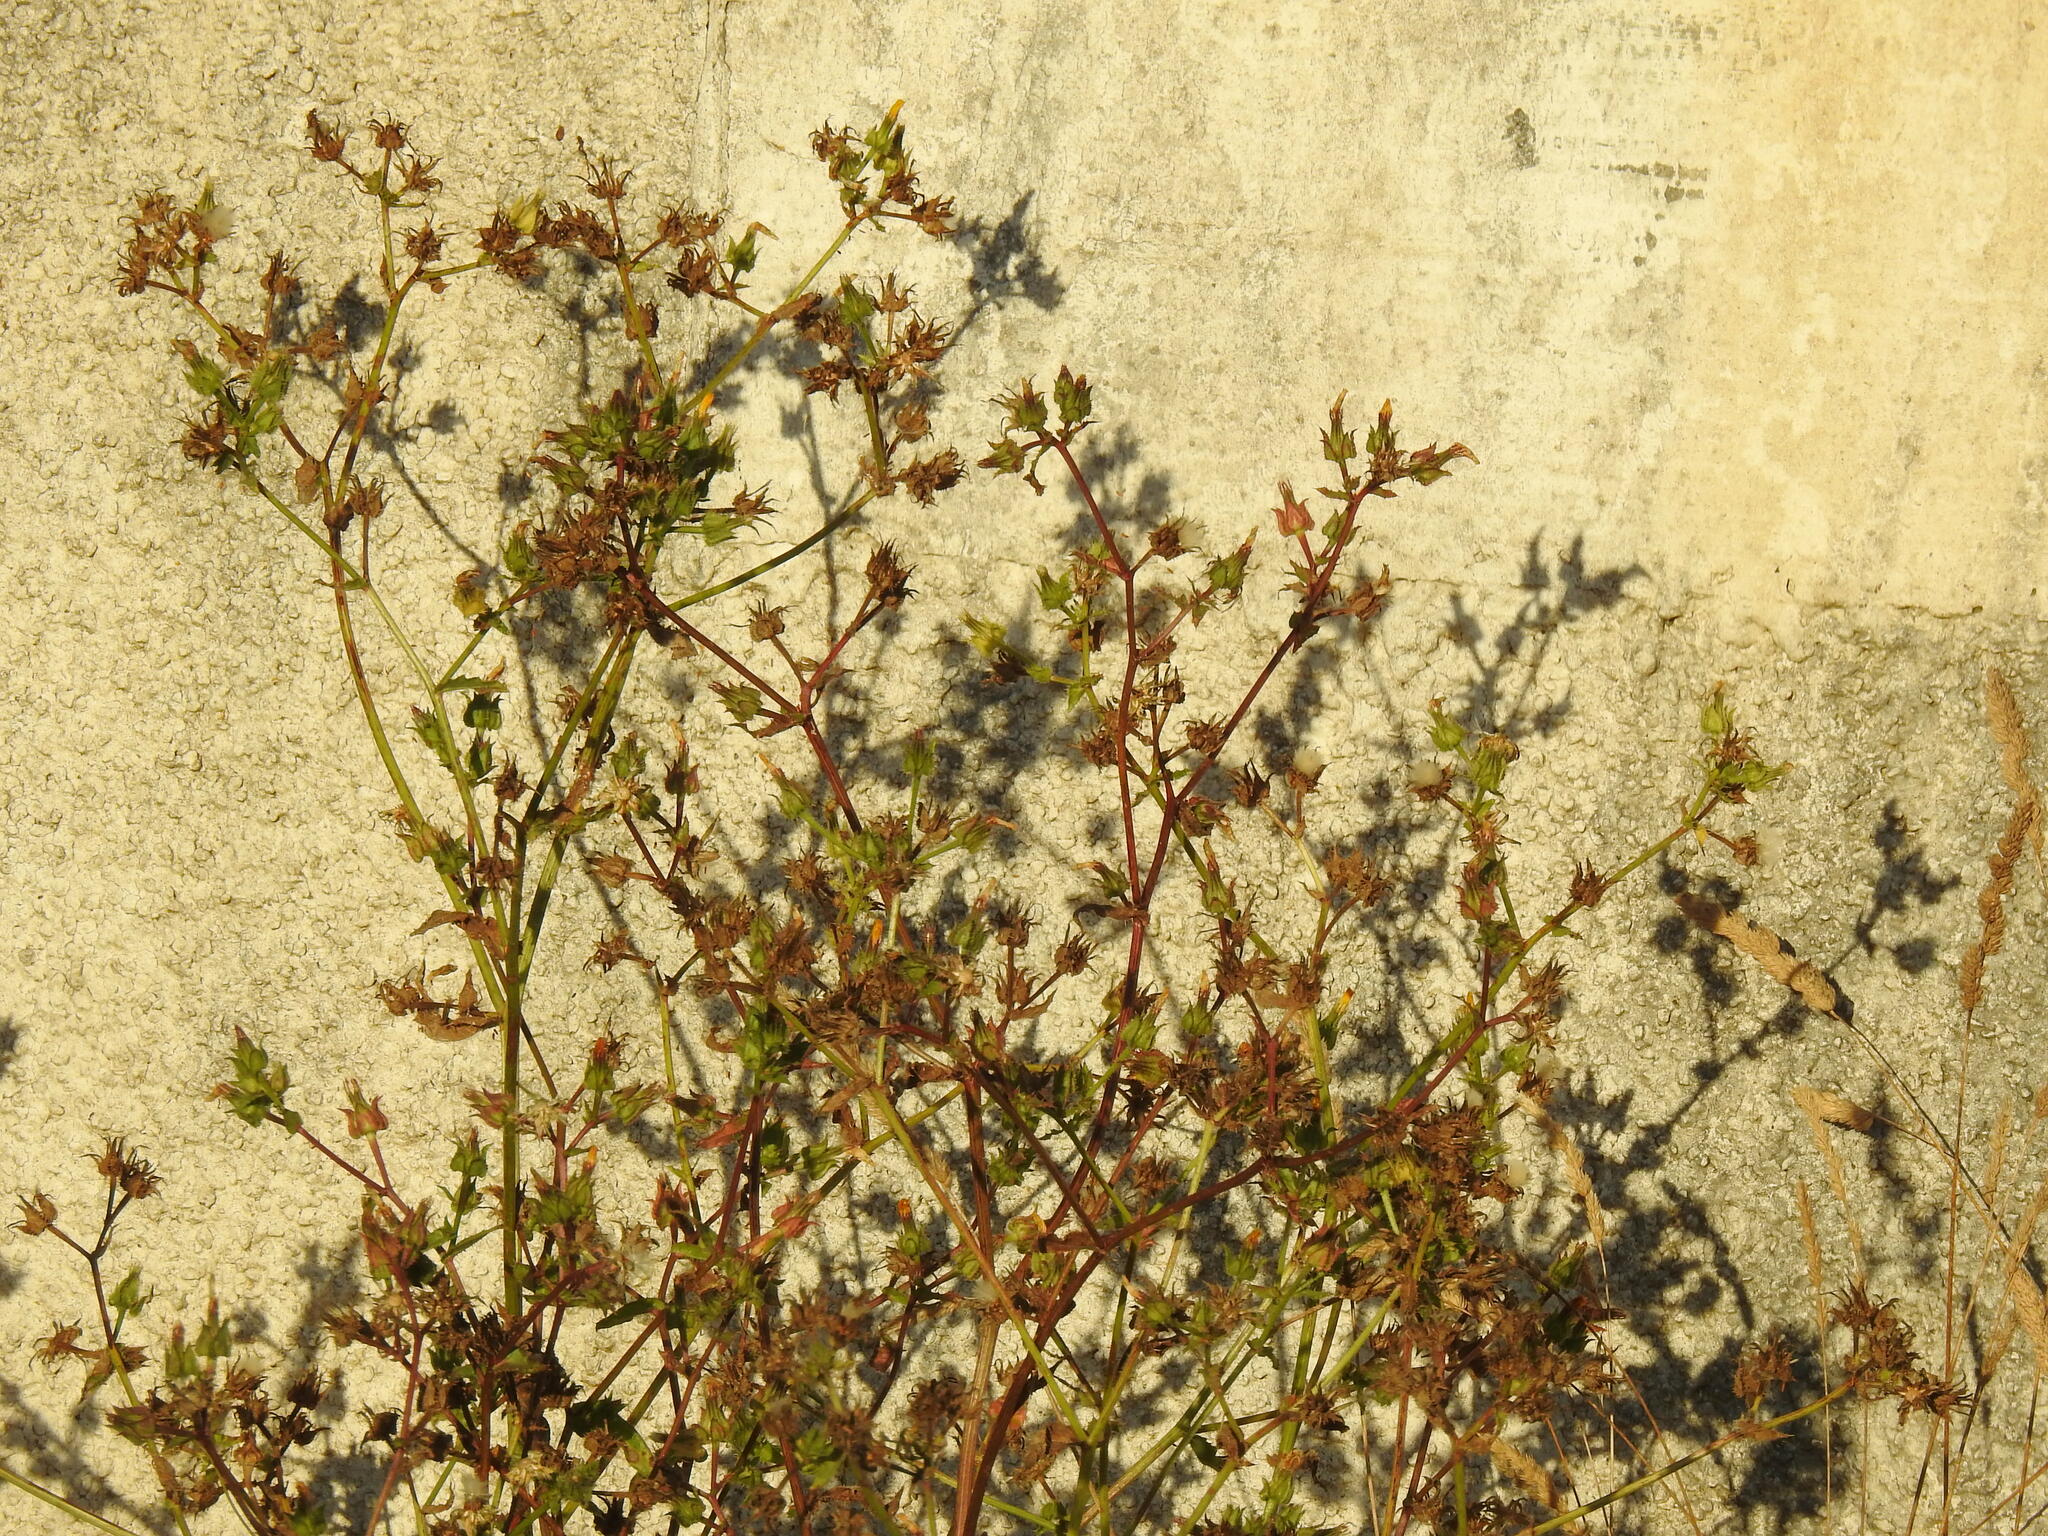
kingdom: Plantae
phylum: Tracheophyta
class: Magnoliopsida
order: Asterales
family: Asteraceae
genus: Helminthotheca
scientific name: Helminthotheca echioides
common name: Ox-tongue
